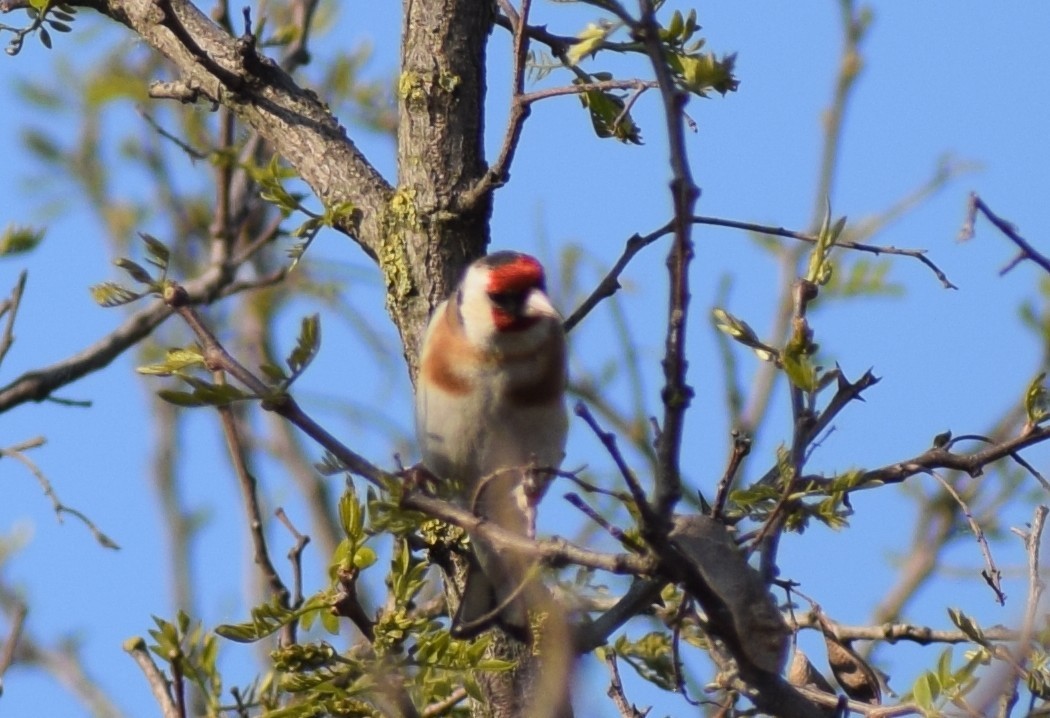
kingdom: Animalia
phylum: Chordata
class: Aves
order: Passeriformes
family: Fringillidae
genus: Carduelis
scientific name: Carduelis carduelis
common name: European goldfinch
